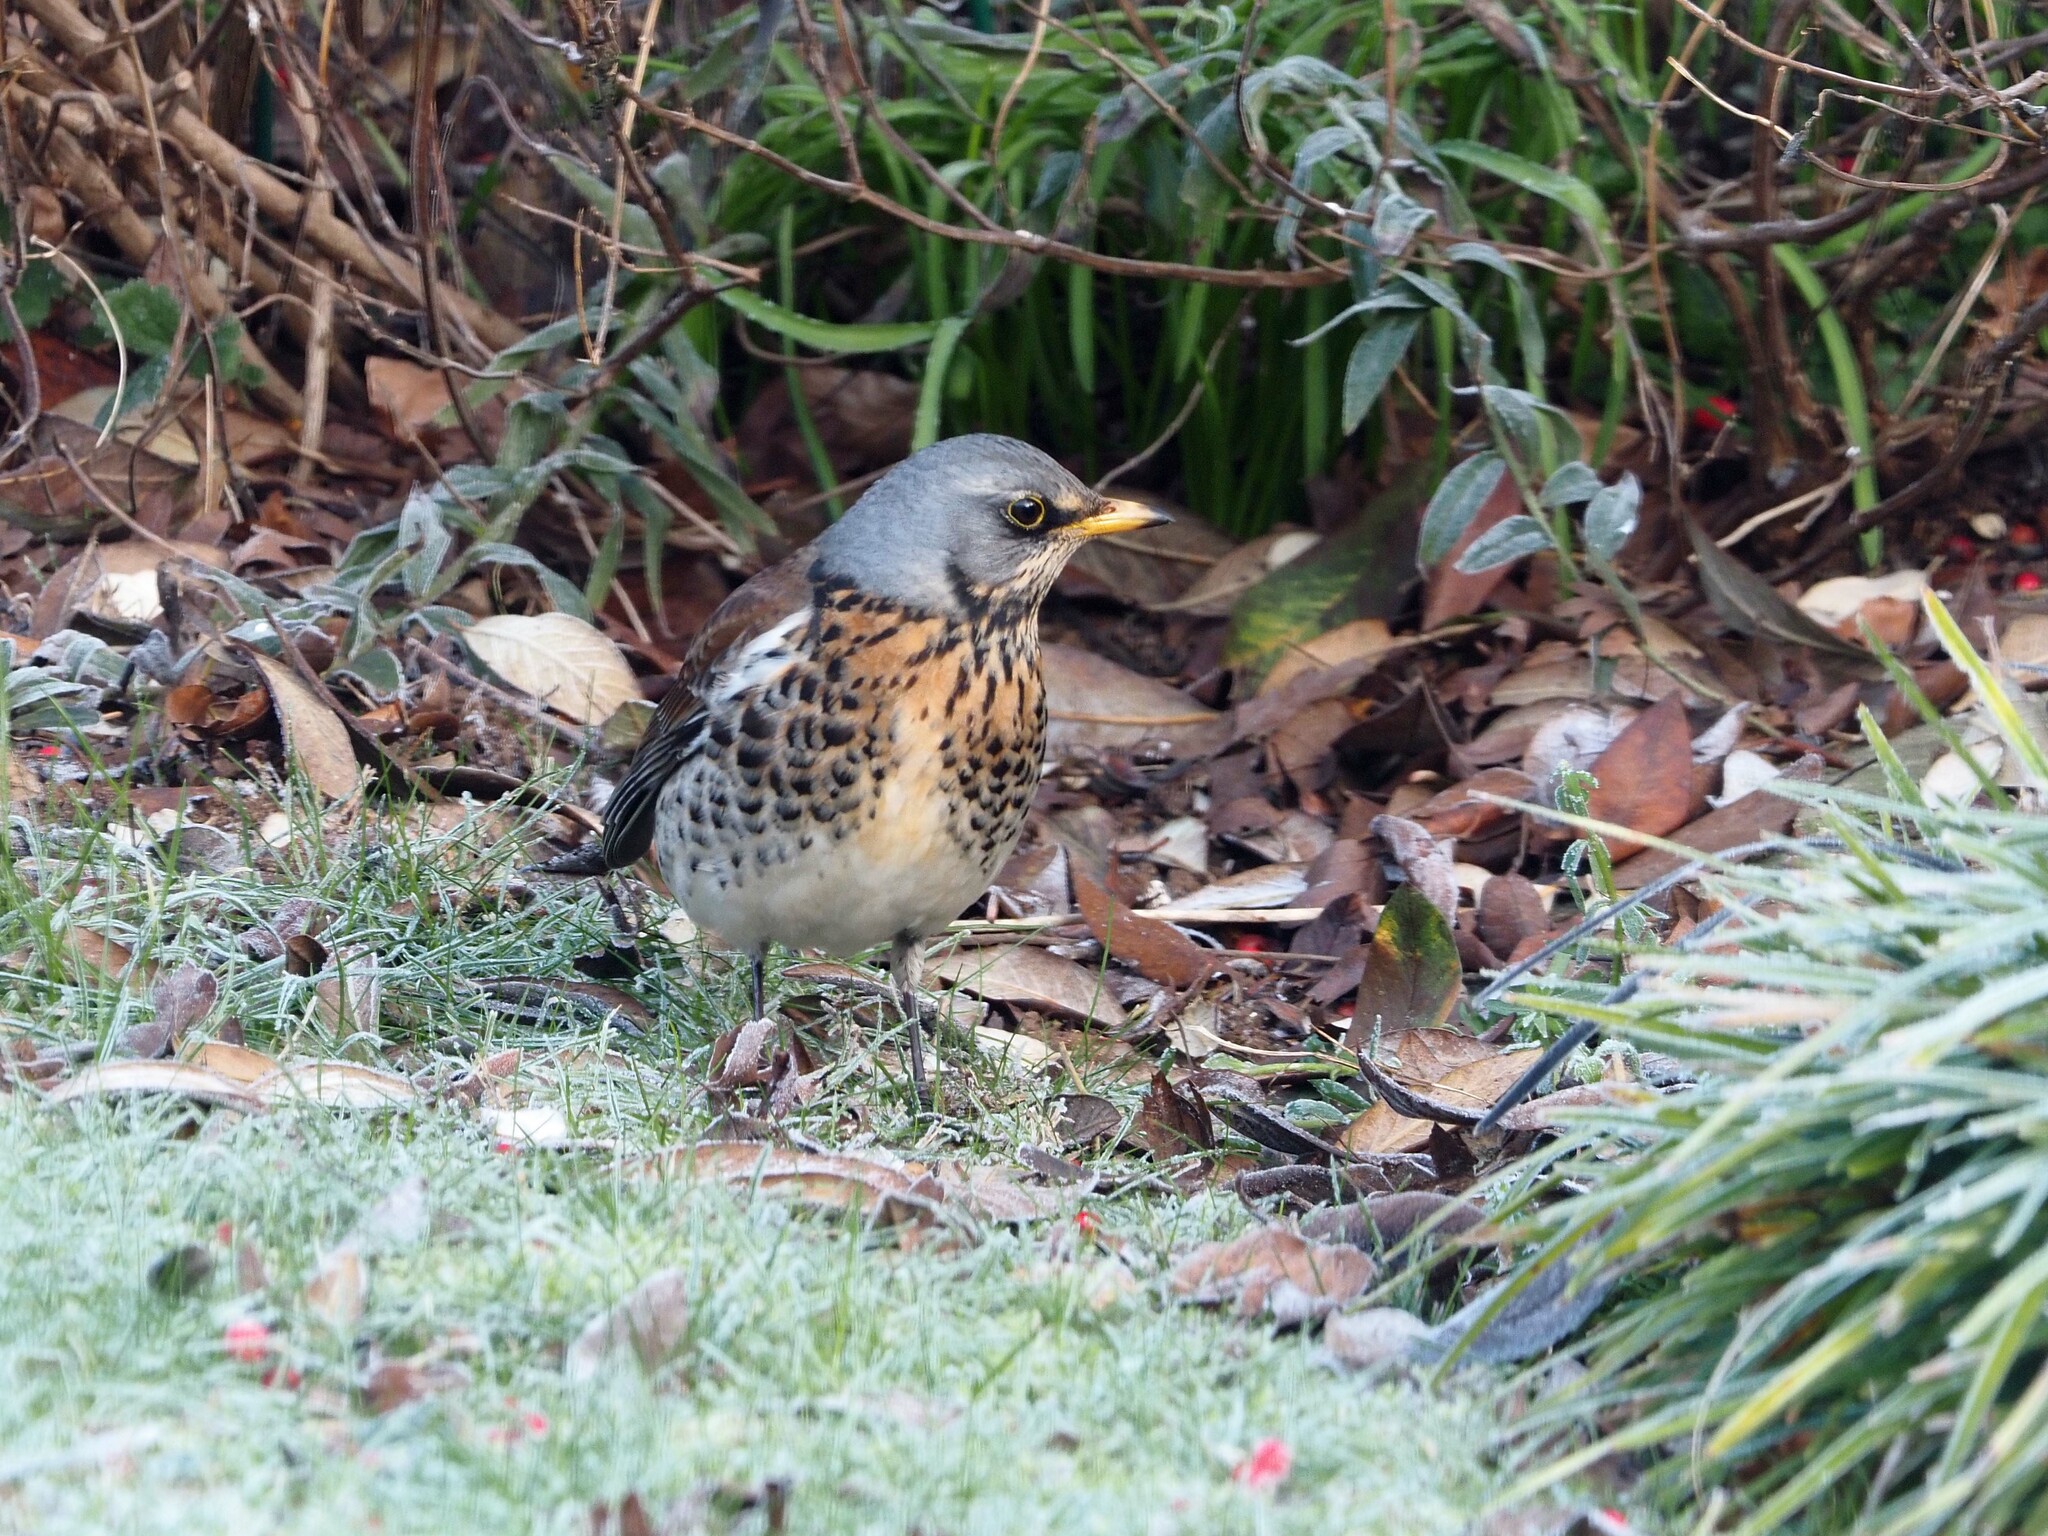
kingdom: Animalia
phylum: Chordata
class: Aves
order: Passeriformes
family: Turdidae
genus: Turdus
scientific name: Turdus pilaris
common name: Fieldfare
